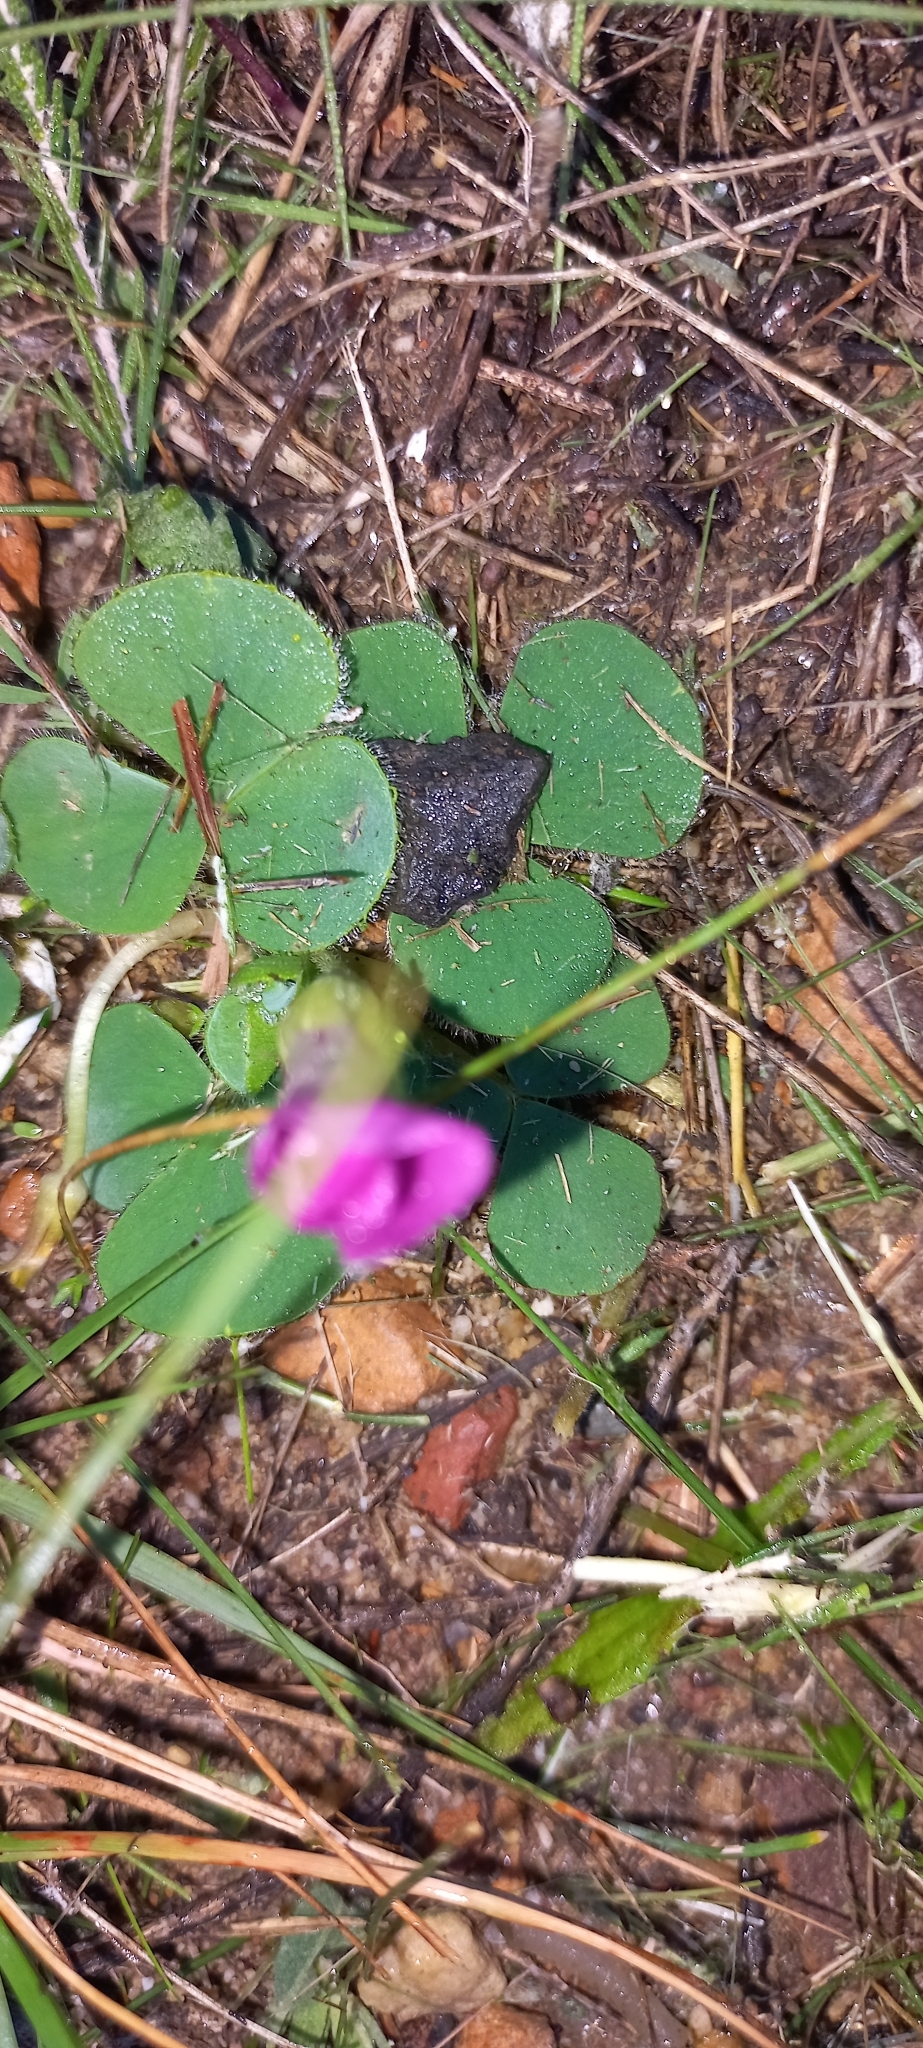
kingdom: Plantae
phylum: Tracheophyta
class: Magnoliopsida
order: Oxalidales
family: Oxalidaceae
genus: Oxalis
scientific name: Oxalis purpurea
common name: Purple woodsorrel
